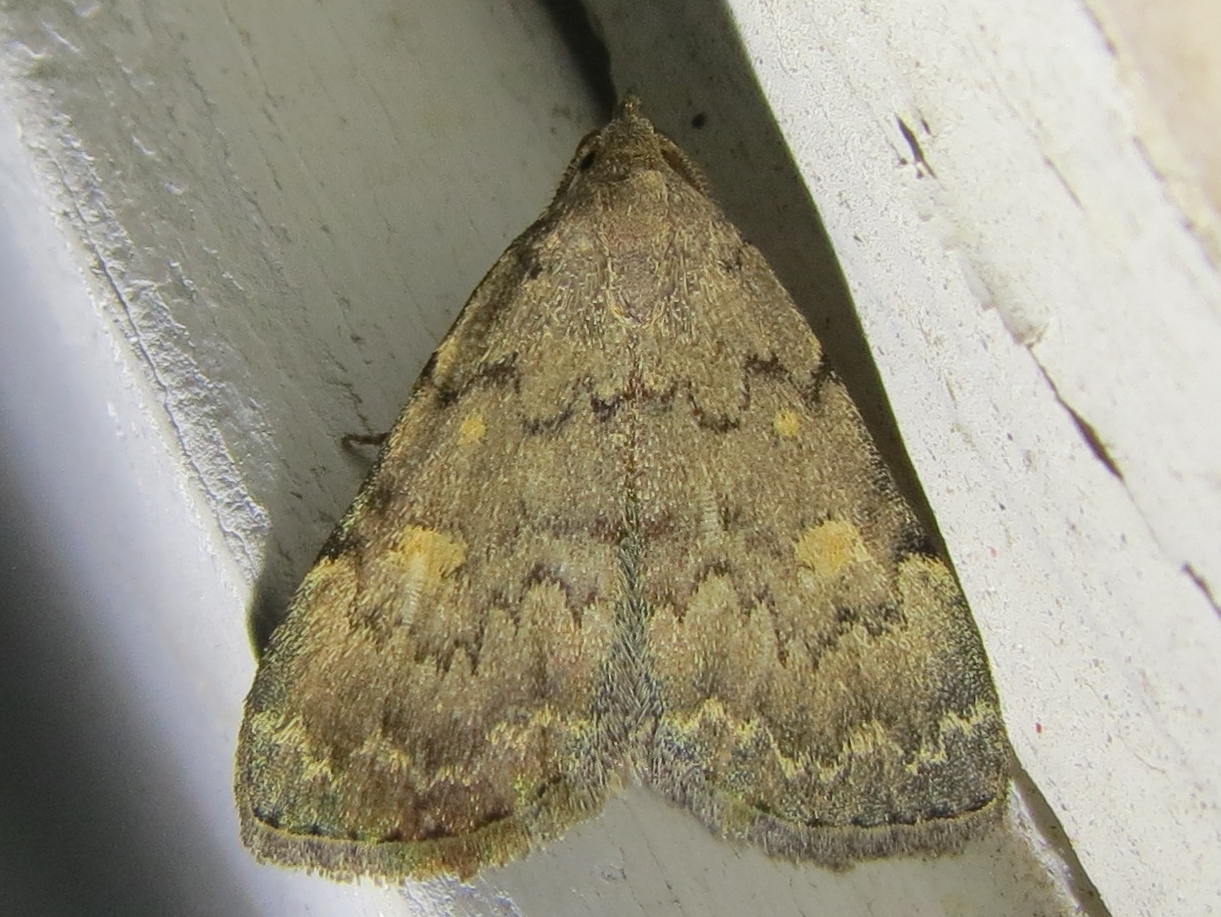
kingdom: Animalia
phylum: Arthropoda
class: Insecta
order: Lepidoptera
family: Erebidae
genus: Idia
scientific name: Idia aemula
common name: Common idia moth
